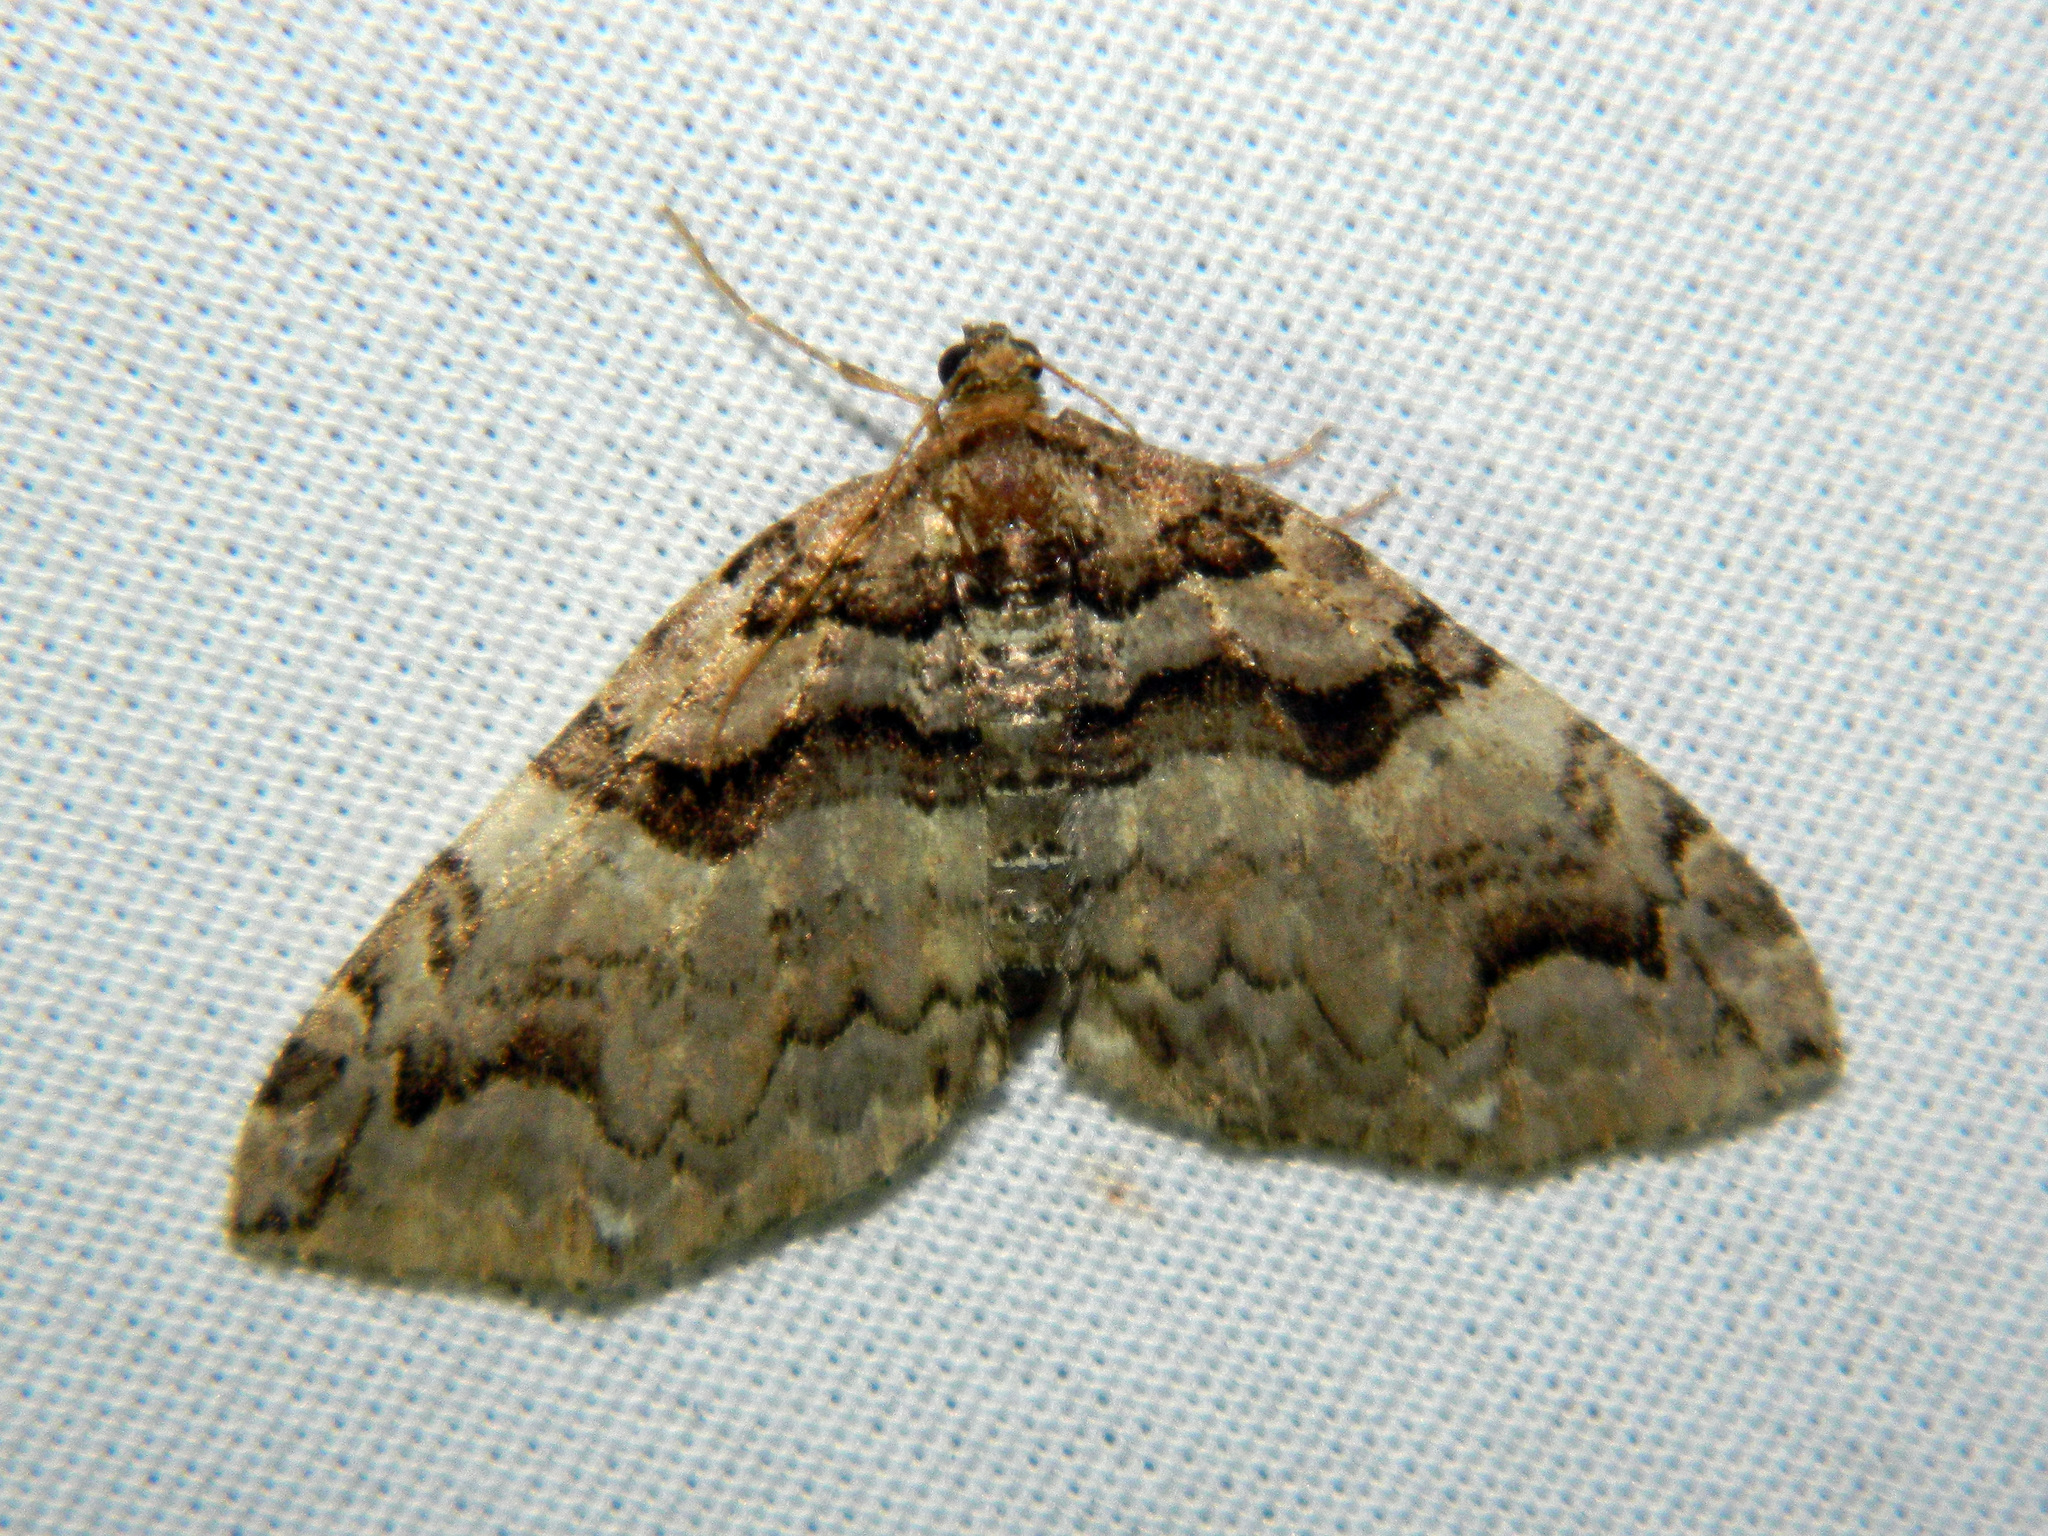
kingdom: Animalia
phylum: Arthropoda
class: Insecta
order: Lepidoptera
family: Geometridae
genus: Anticlea
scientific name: Anticlea vasiliata
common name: Variable carpet
